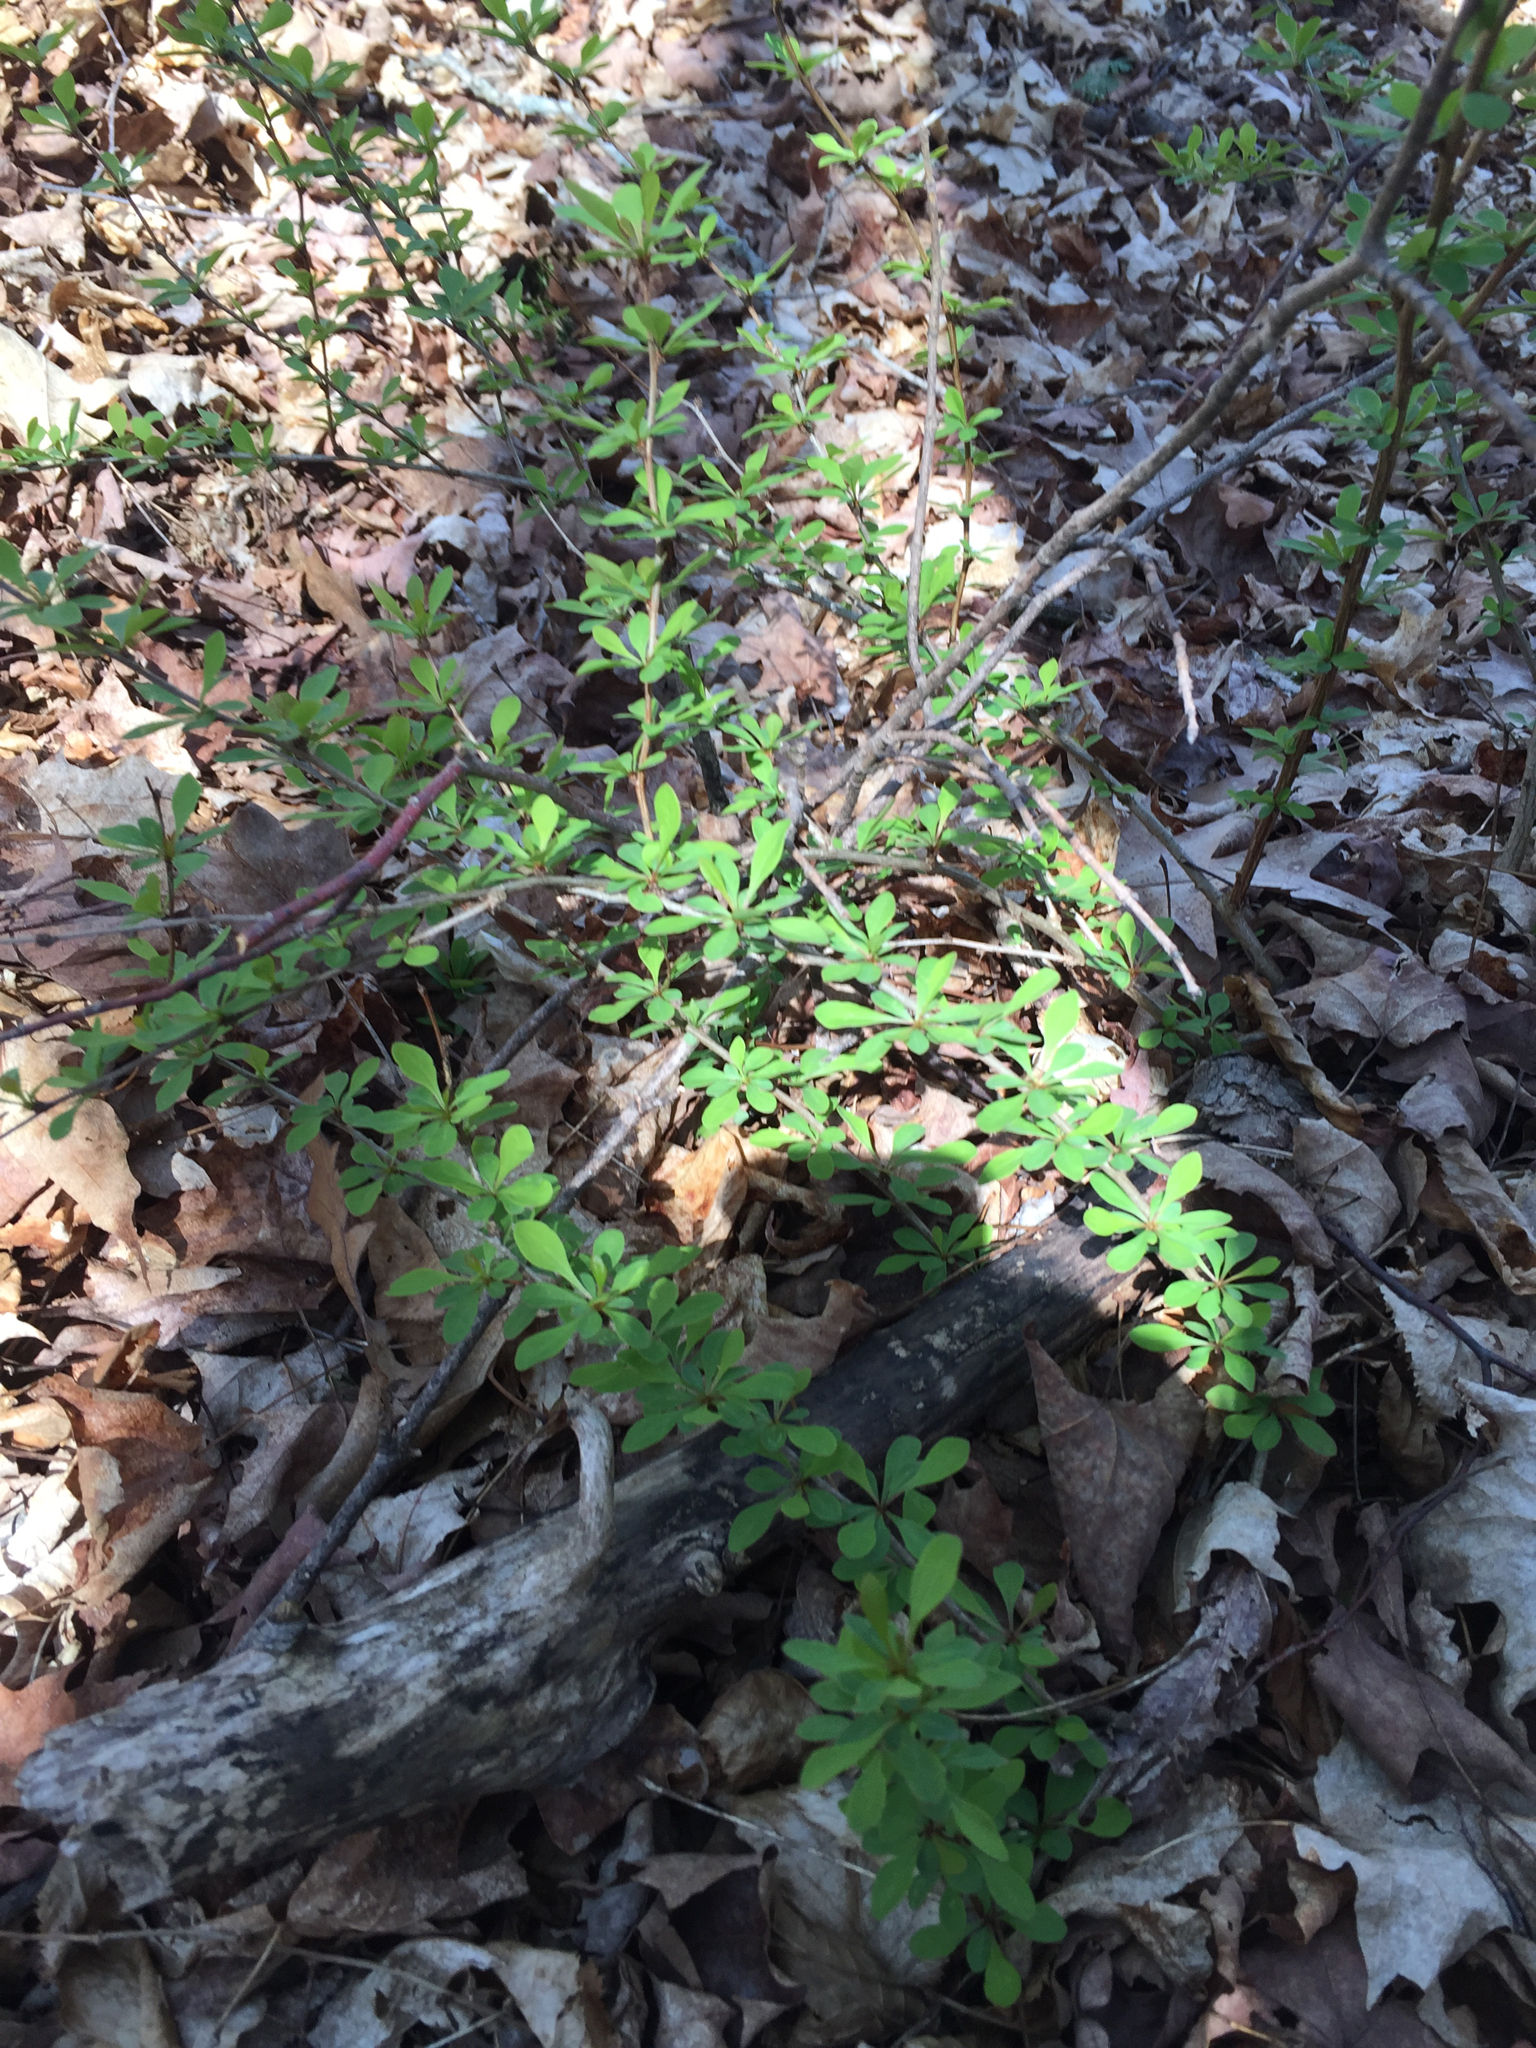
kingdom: Plantae
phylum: Tracheophyta
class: Magnoliopsida
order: Ranunculales
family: Berberidaceae
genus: Berberis
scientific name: Berberis thunbergii
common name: Japanese barberry
